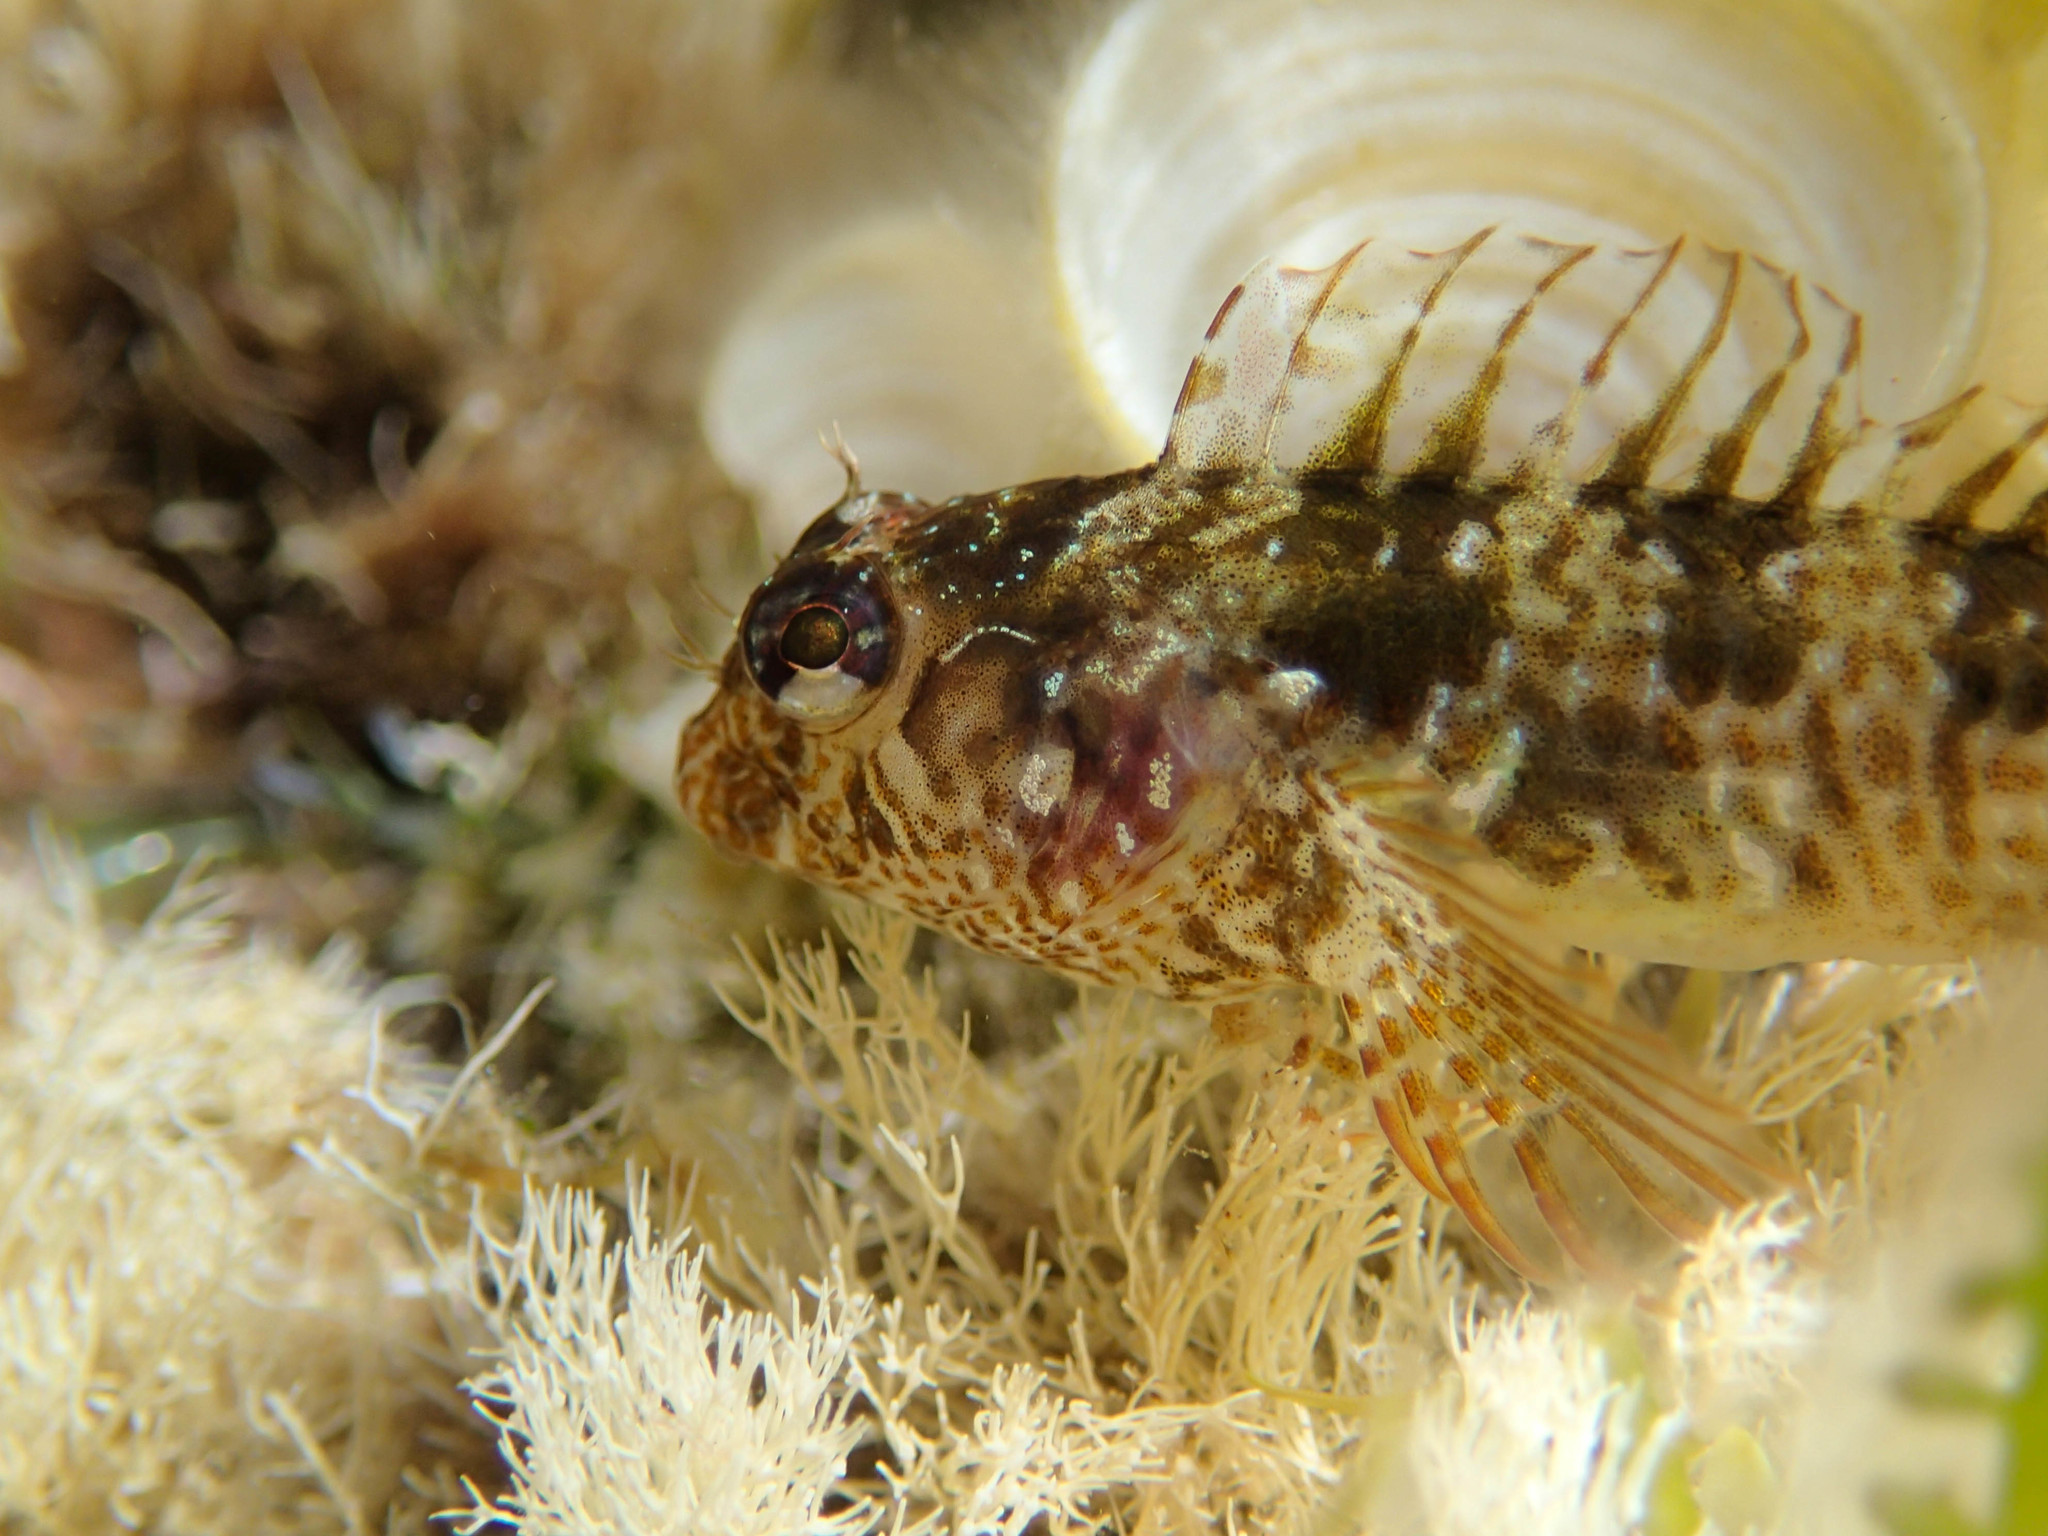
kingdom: Animalia
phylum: Chordata
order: Perciformes
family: Blenniidae
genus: Parablennius
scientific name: Parablennius incognitus
